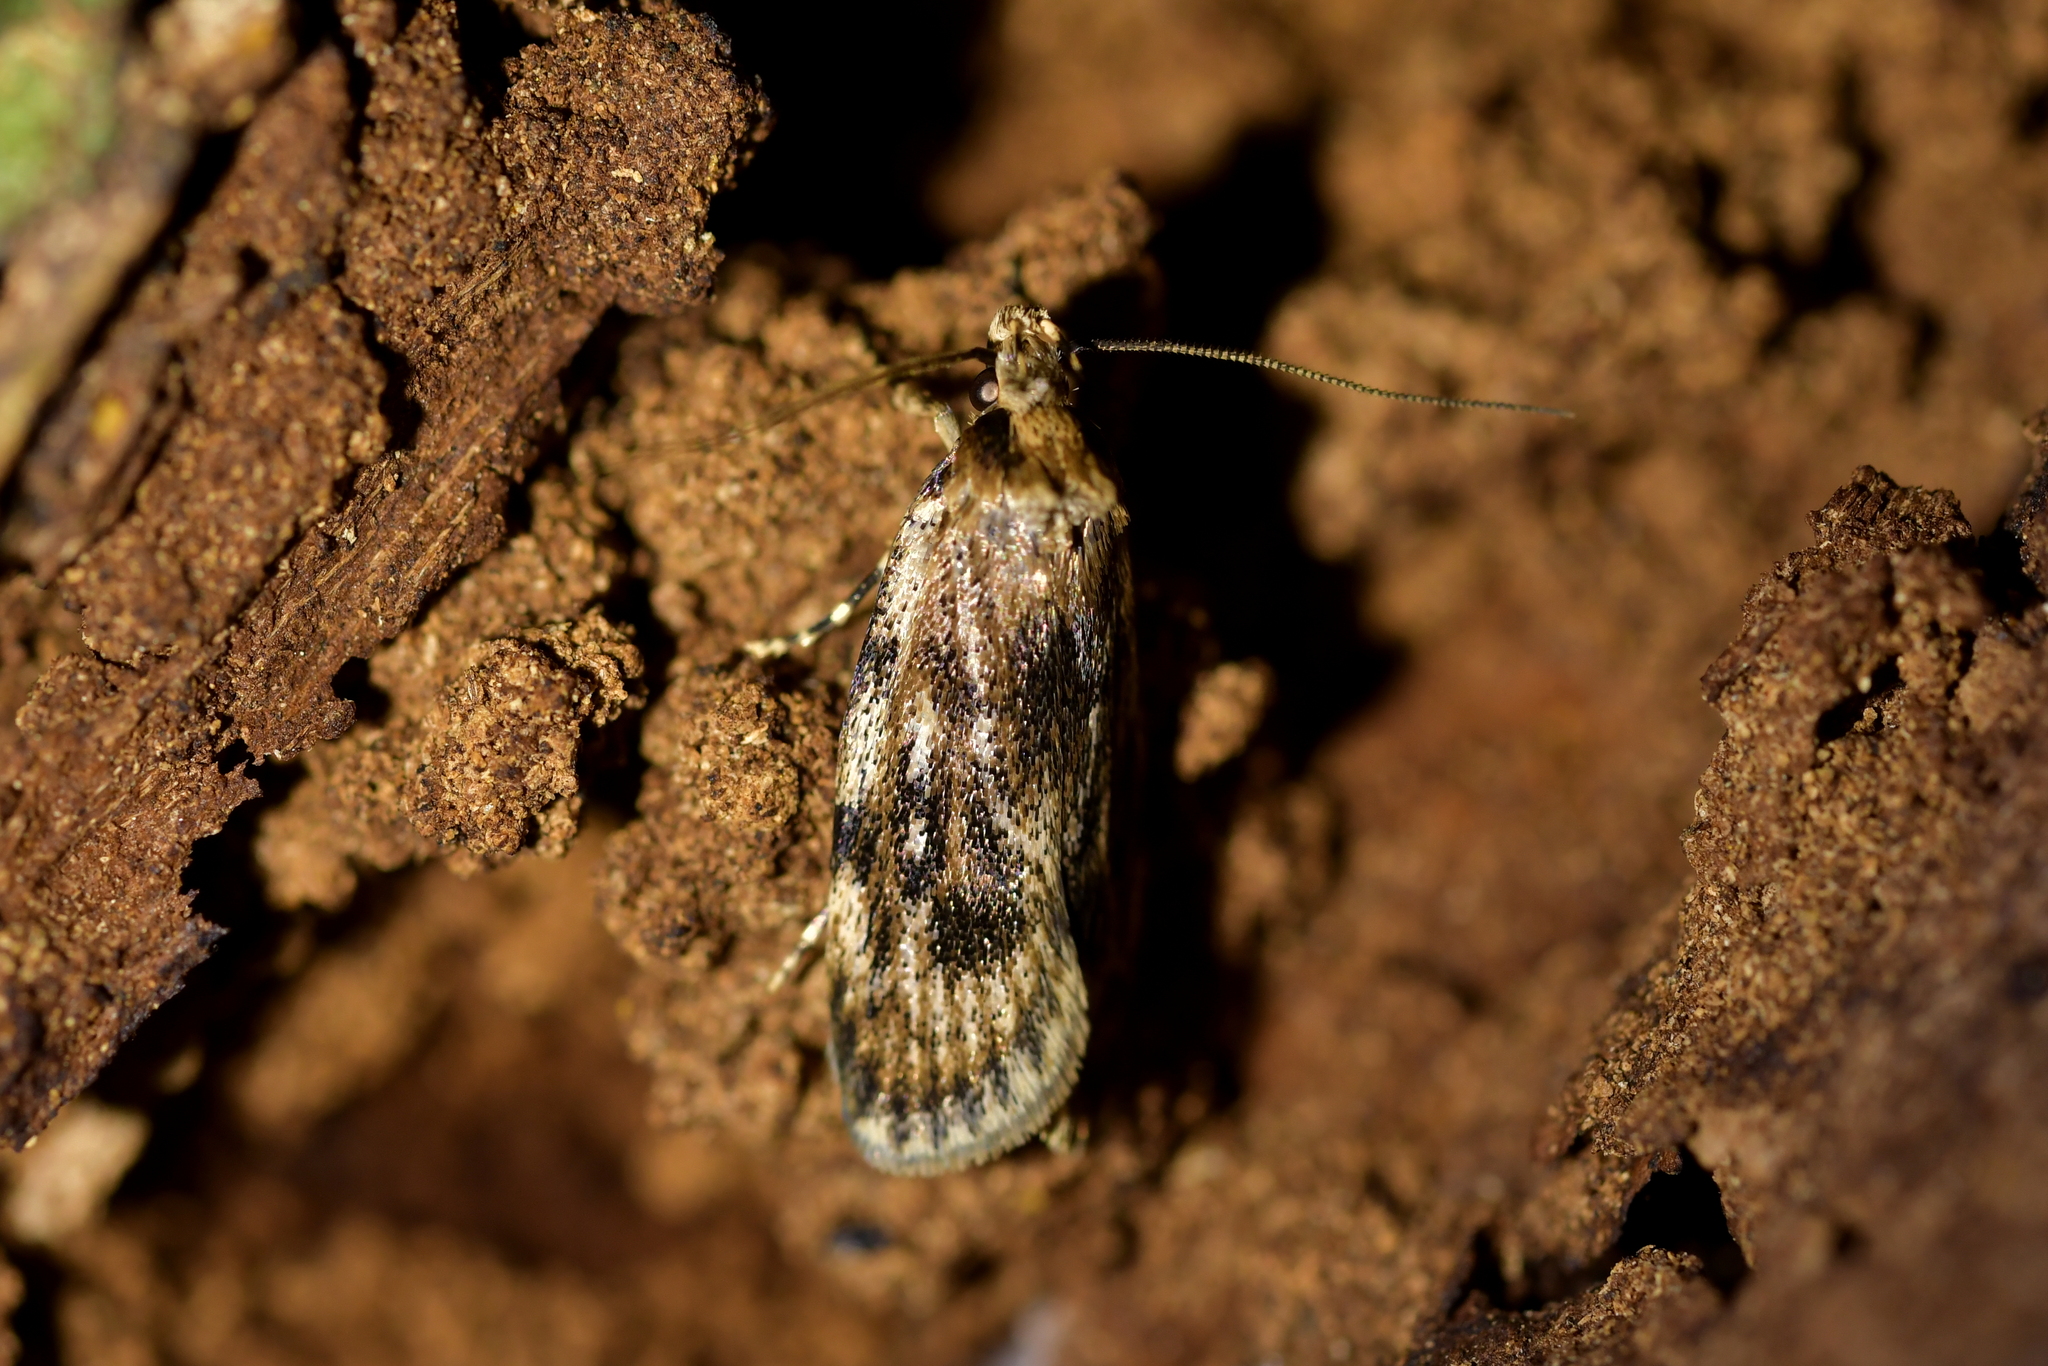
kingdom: Animalia
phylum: Arthropoda
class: Insecta
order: Lepidoptera
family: Oecophoridae
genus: Barea
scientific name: Barea exarcha
